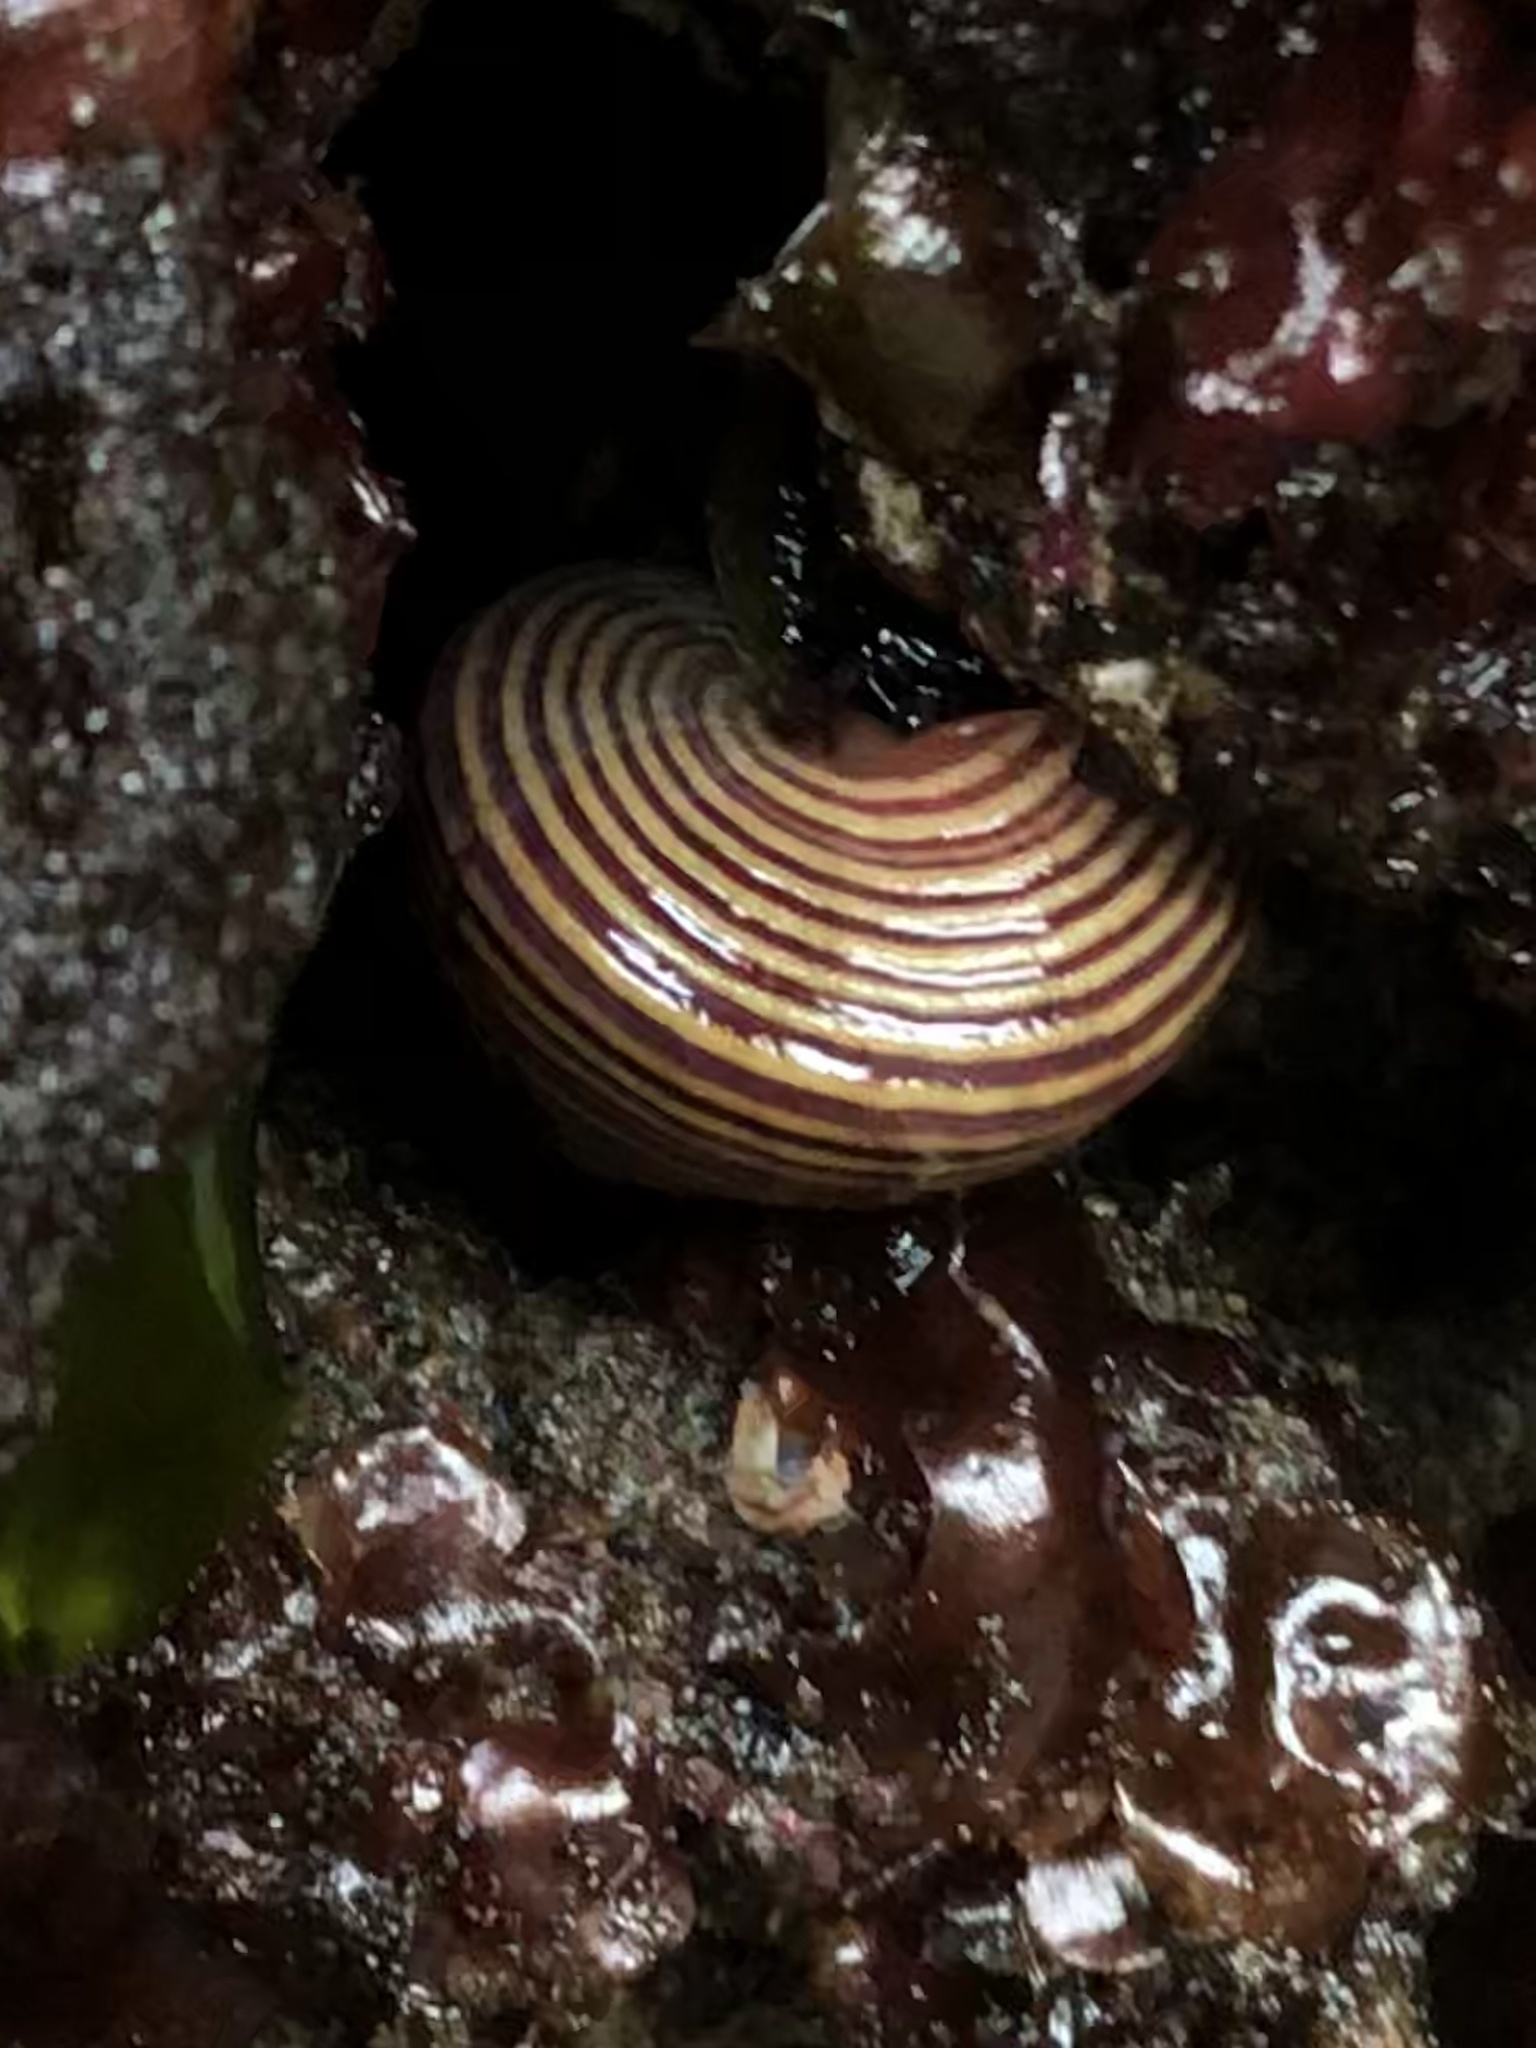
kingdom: Animalia
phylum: Mollusca
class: Gastropoda
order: Trochida
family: Calliostomatidae
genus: Calliostoma
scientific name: Calliostoma ligatum
